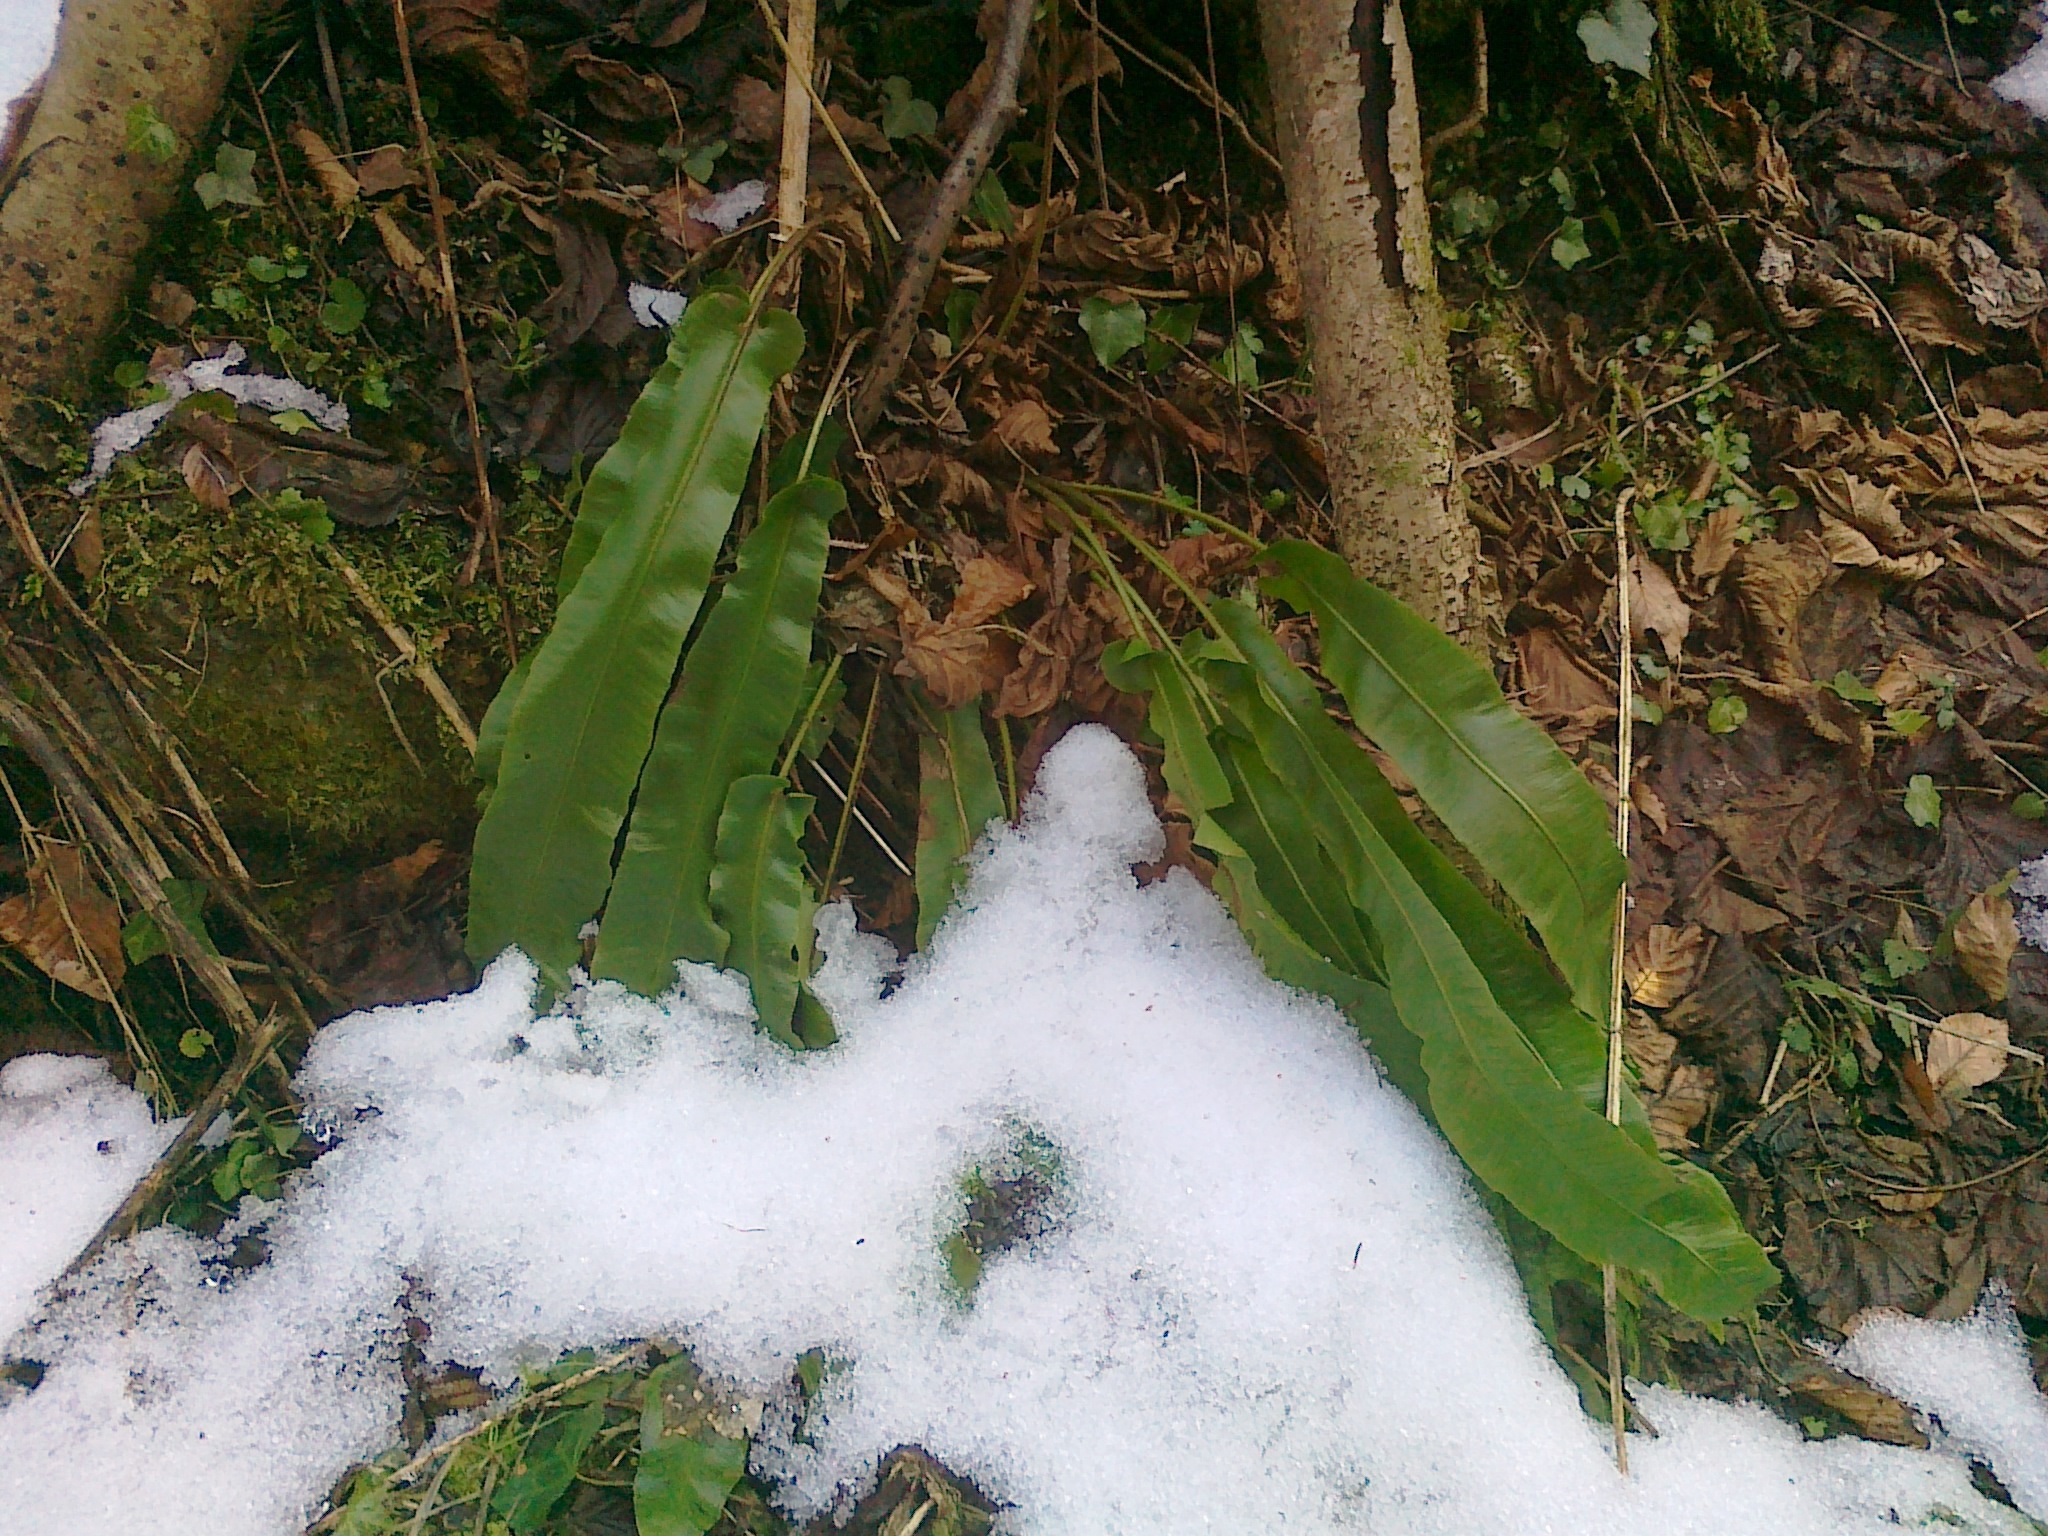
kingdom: Plantae
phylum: Tracheophyta
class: Polypodiopsida
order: Polypodiales
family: Aspleniaceae
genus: Asplenium
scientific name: Asplenium scolopendrium
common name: Hart's-tongue fern
